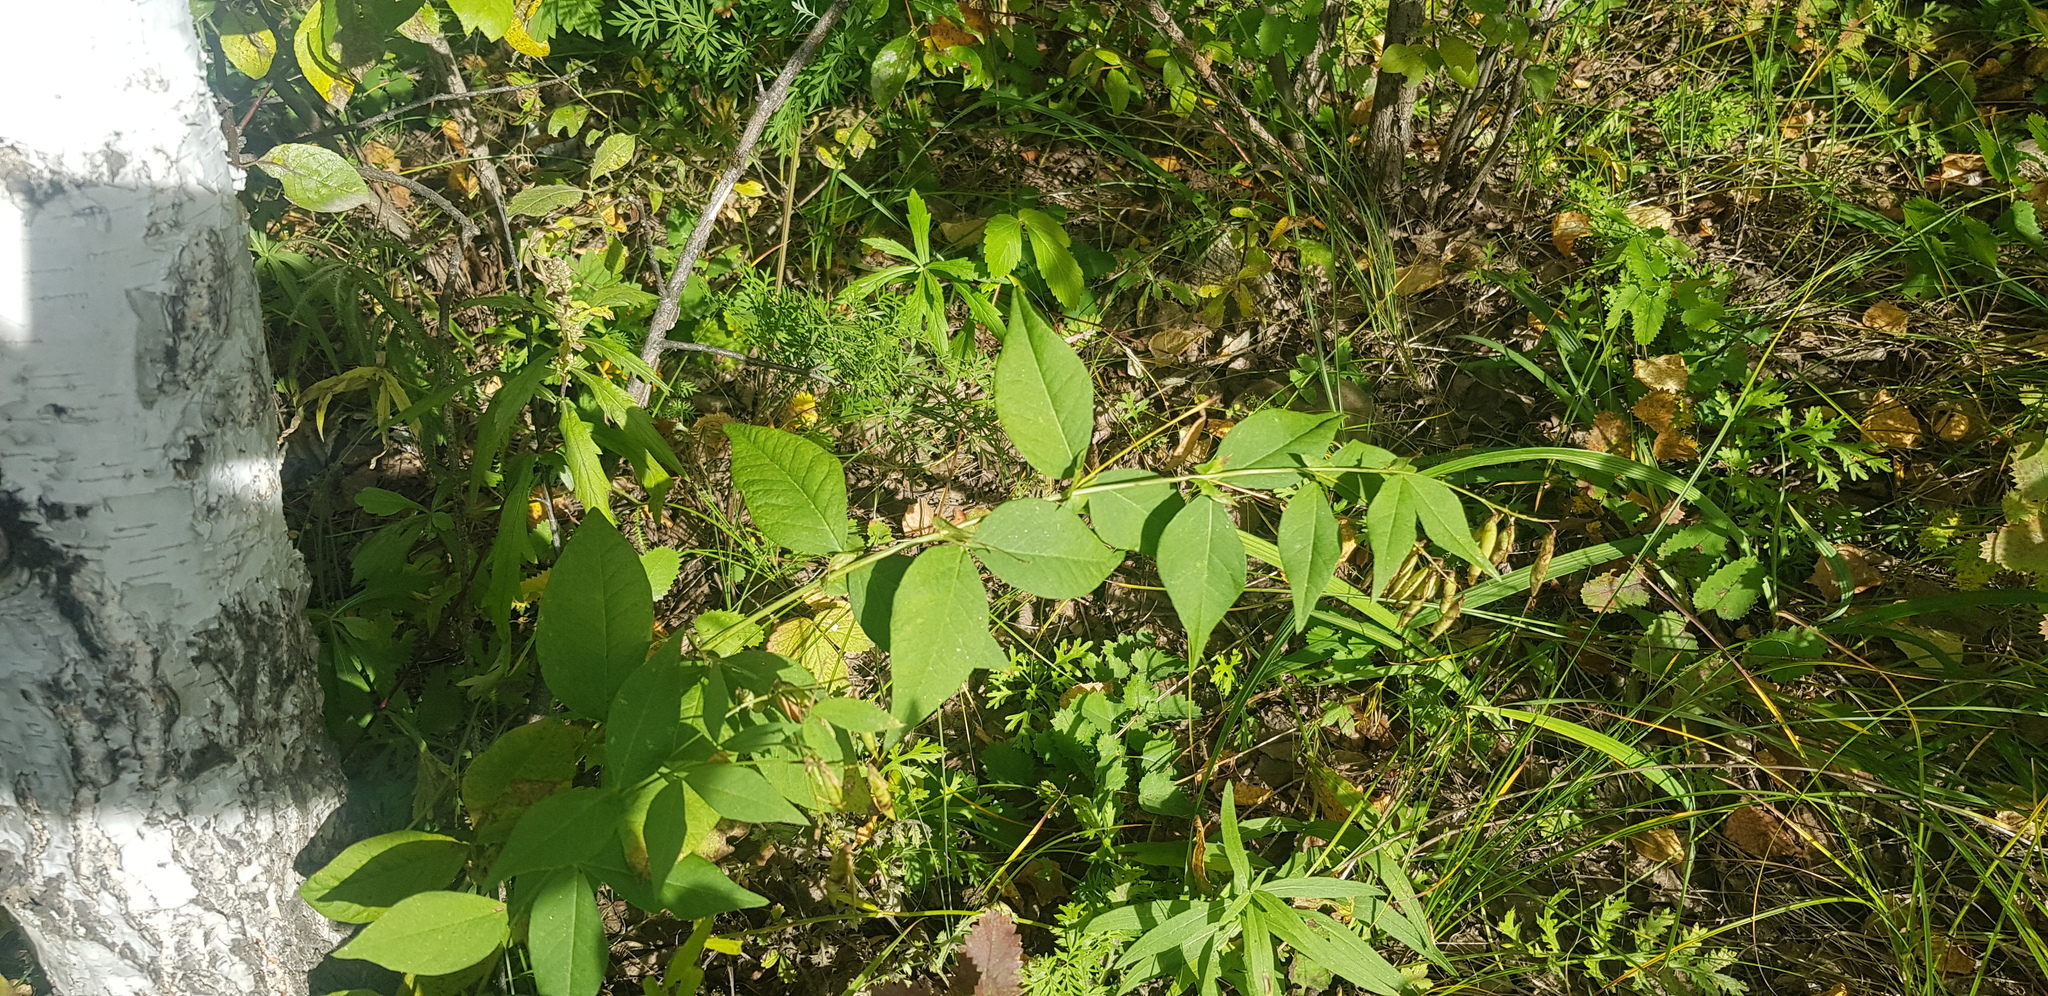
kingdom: Plantae
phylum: Tracheophyta
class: Magnoliopsida
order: Fabales
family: Fabaceae
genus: Vicia
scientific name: Vicia unijuga
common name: Two-leaf vetch
